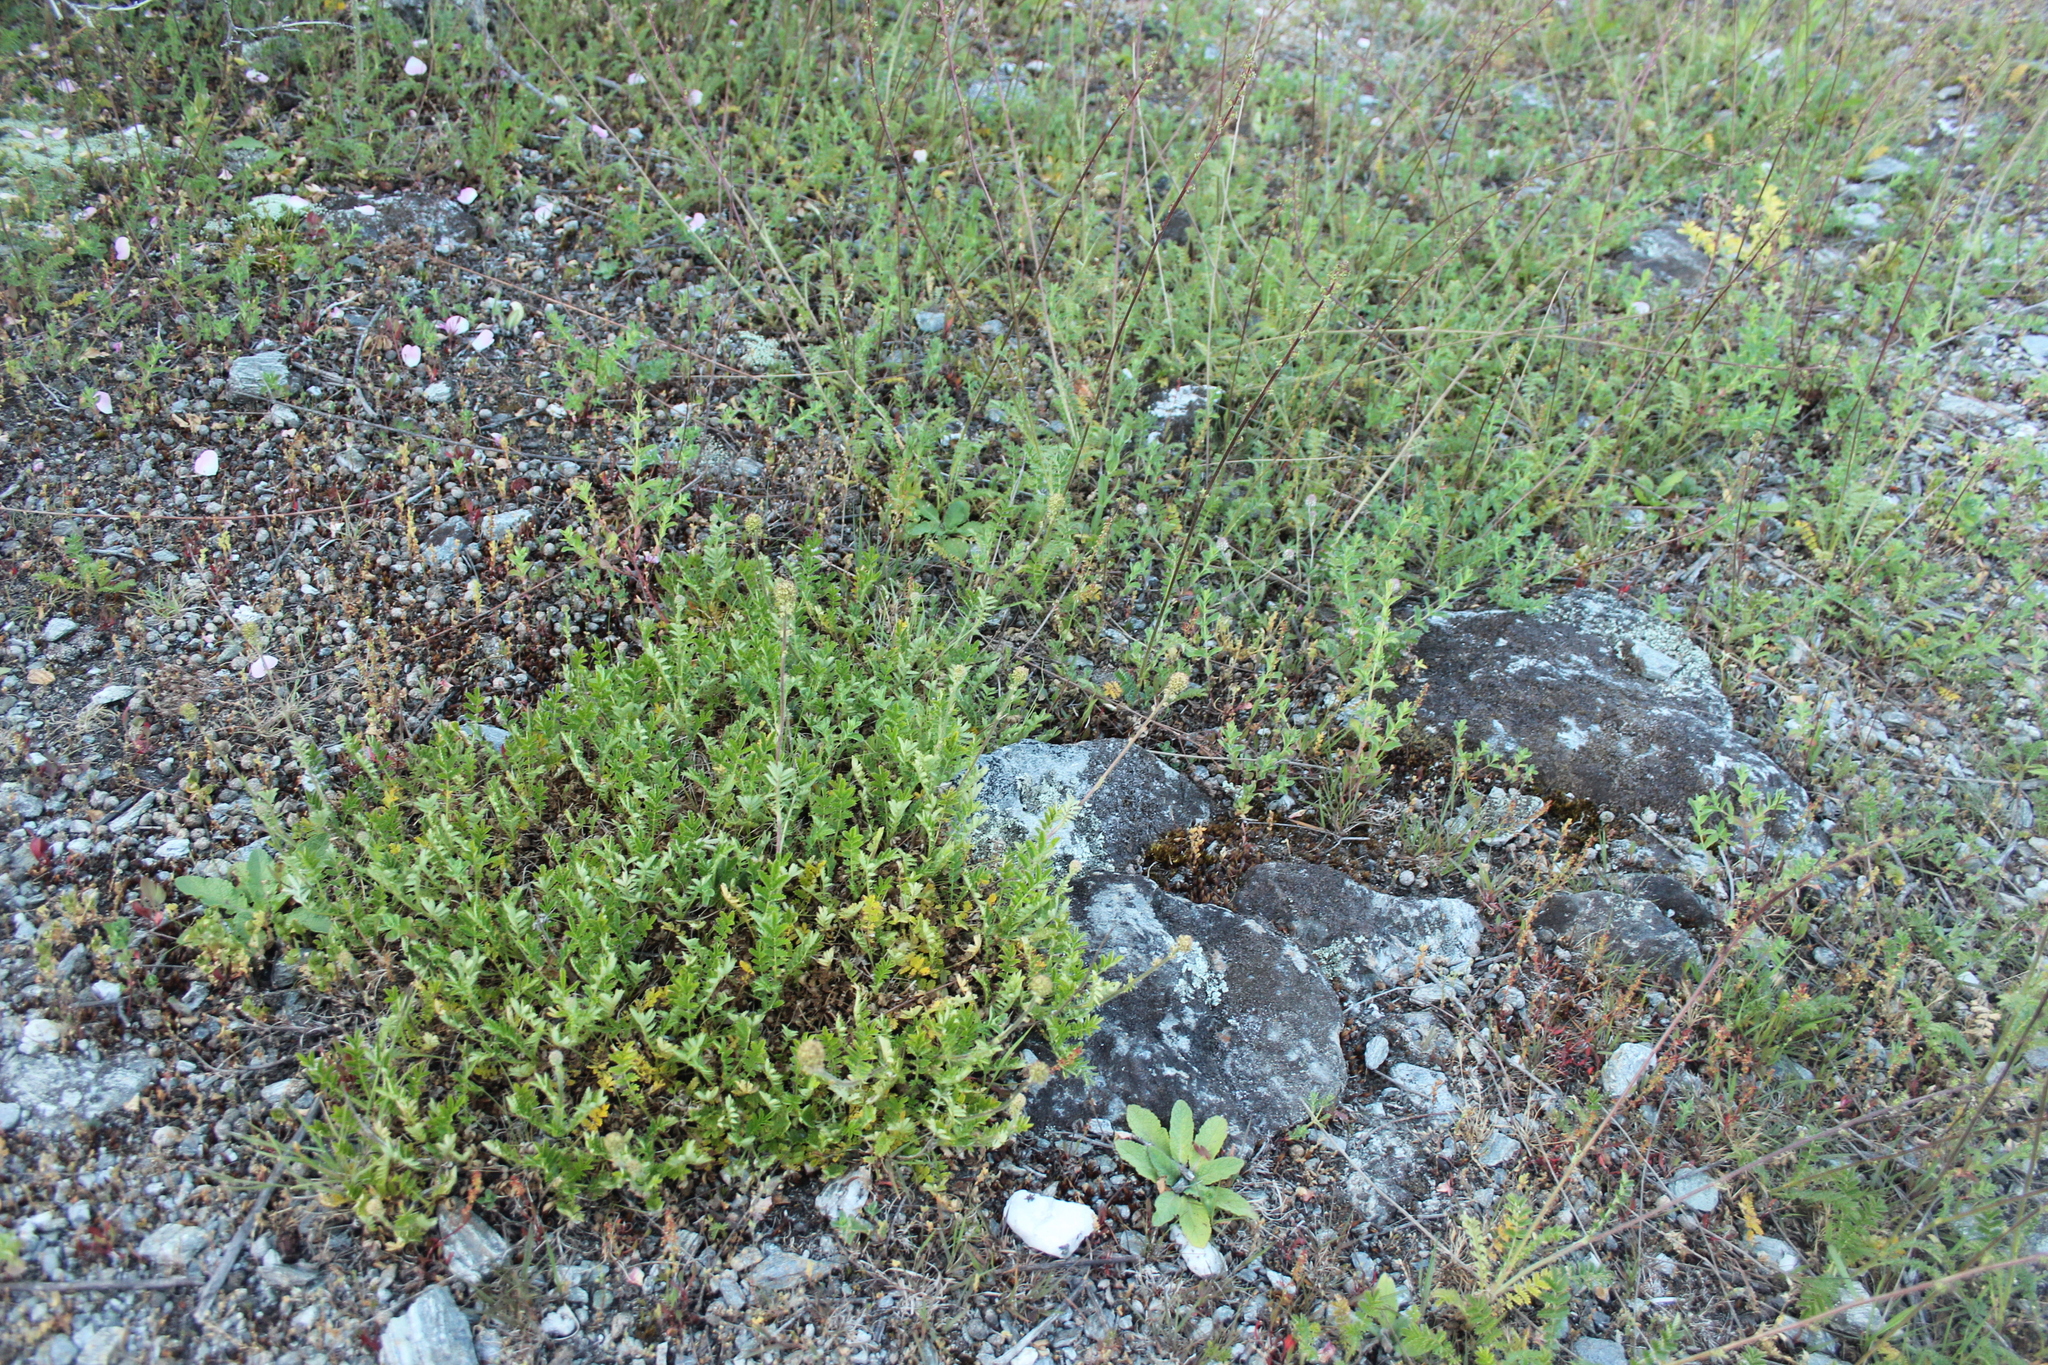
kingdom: Plantae
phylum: Tracheophyta
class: Magnoliopsida
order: Rosales
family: Rosaceae
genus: Acaena
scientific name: Acaena
